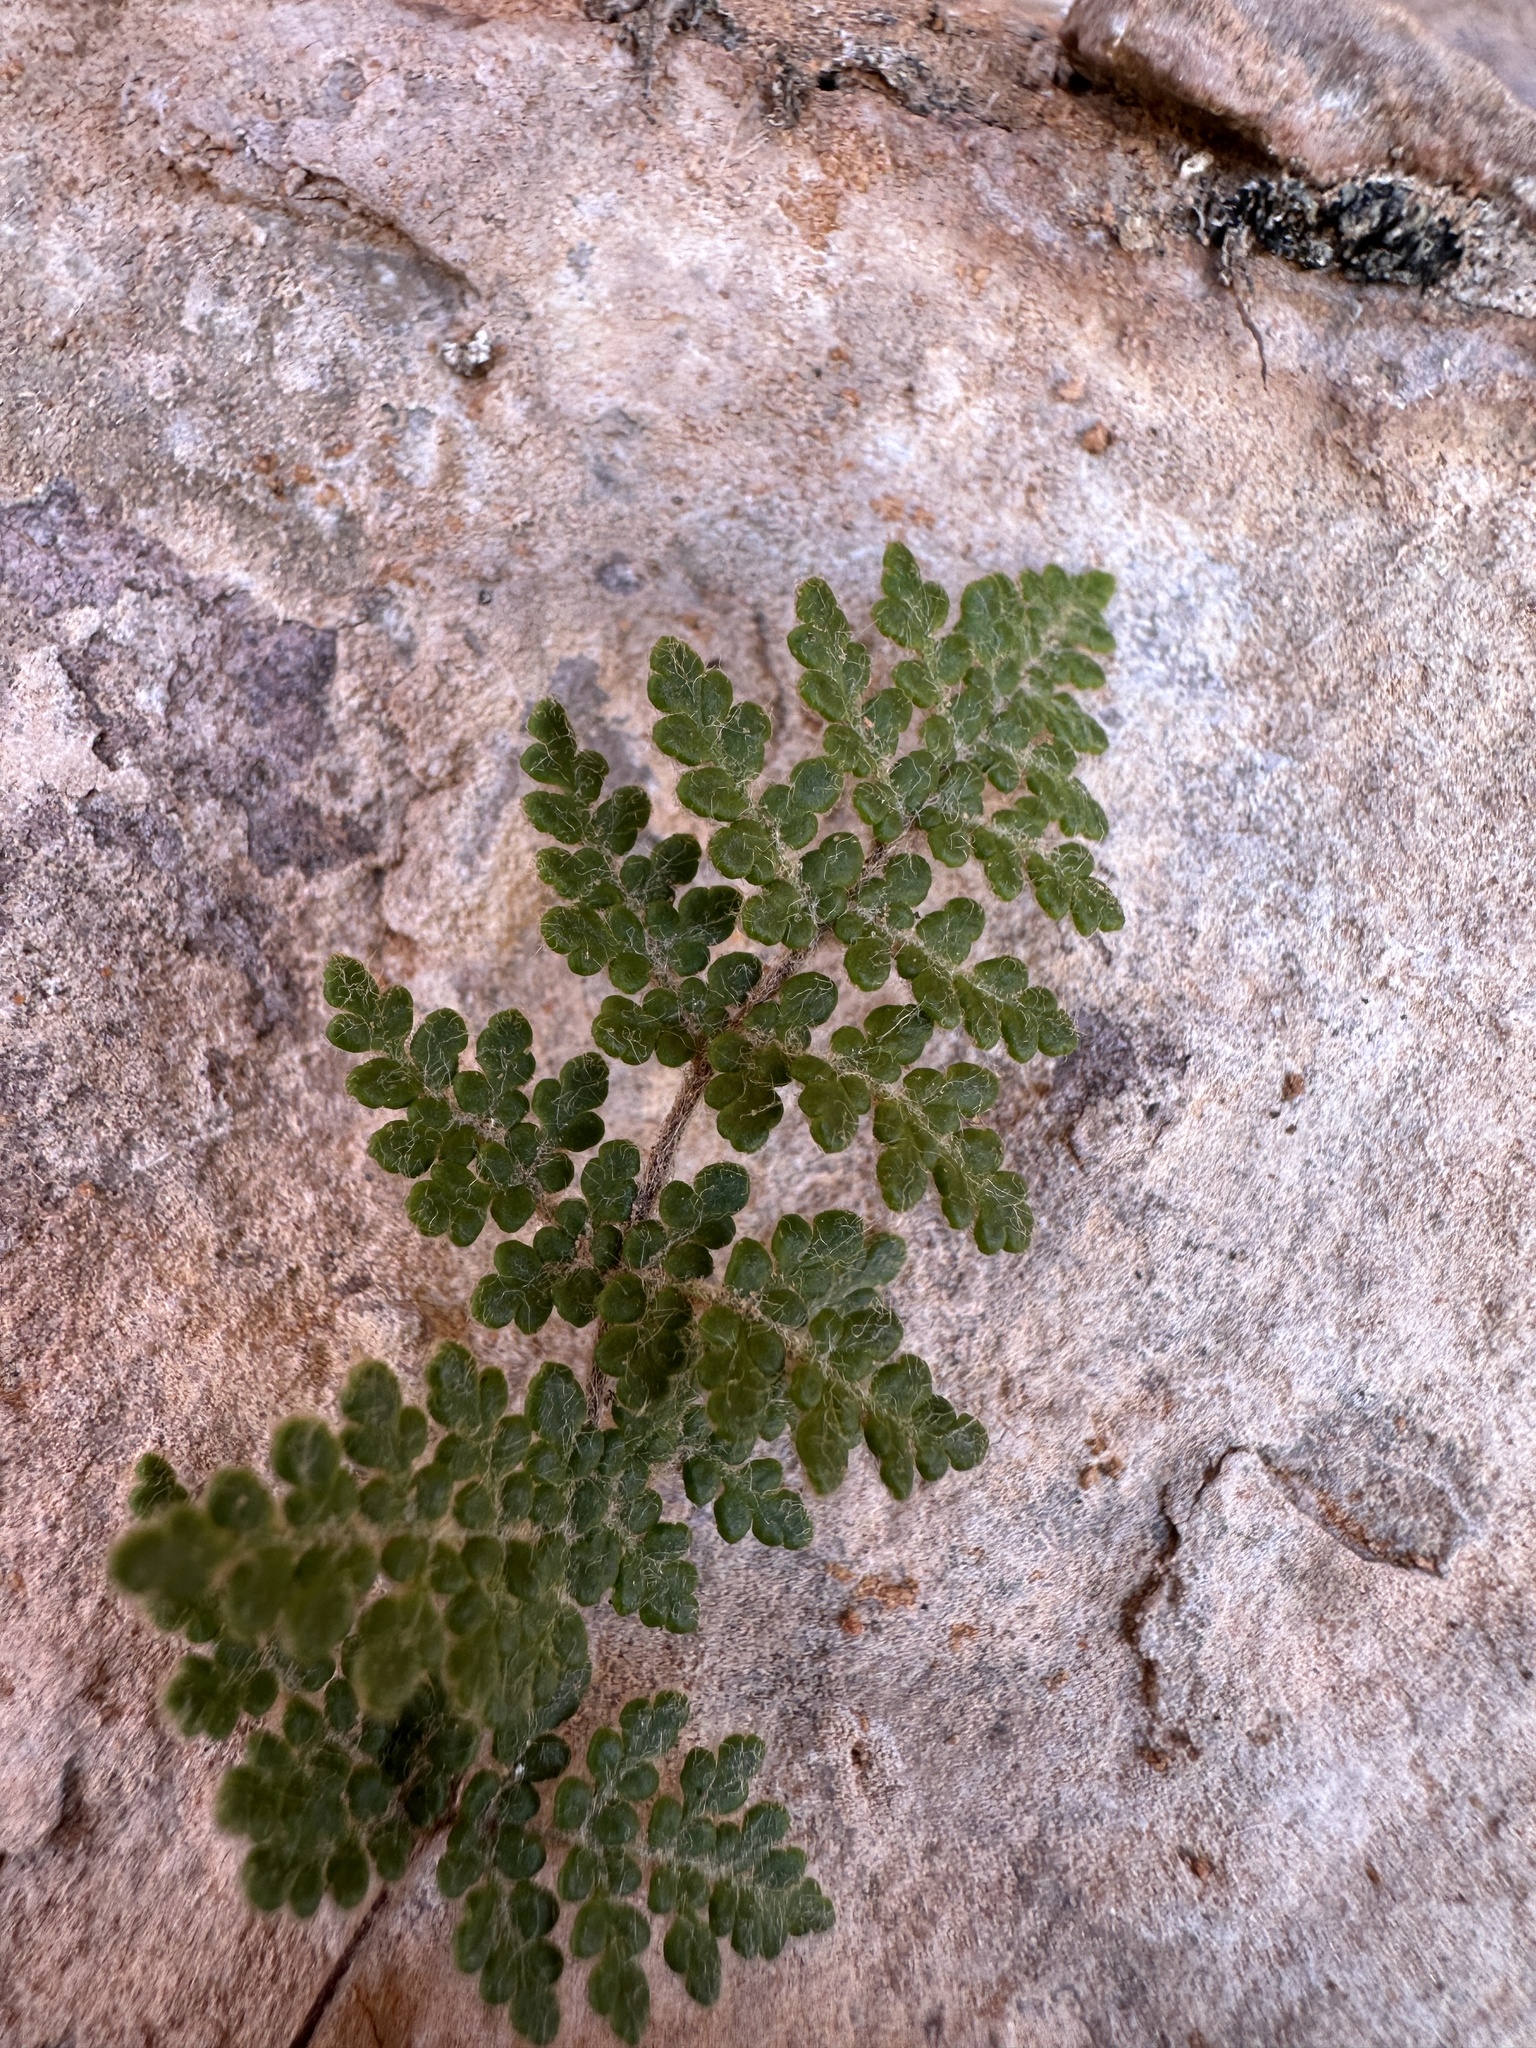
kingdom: Plantae
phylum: Tracheophyta
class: Polypodiopsida
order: Polypodiales
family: Pteridaceae
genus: Myriopteris
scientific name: Myriopteris gracilis
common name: Fee's lip fern
